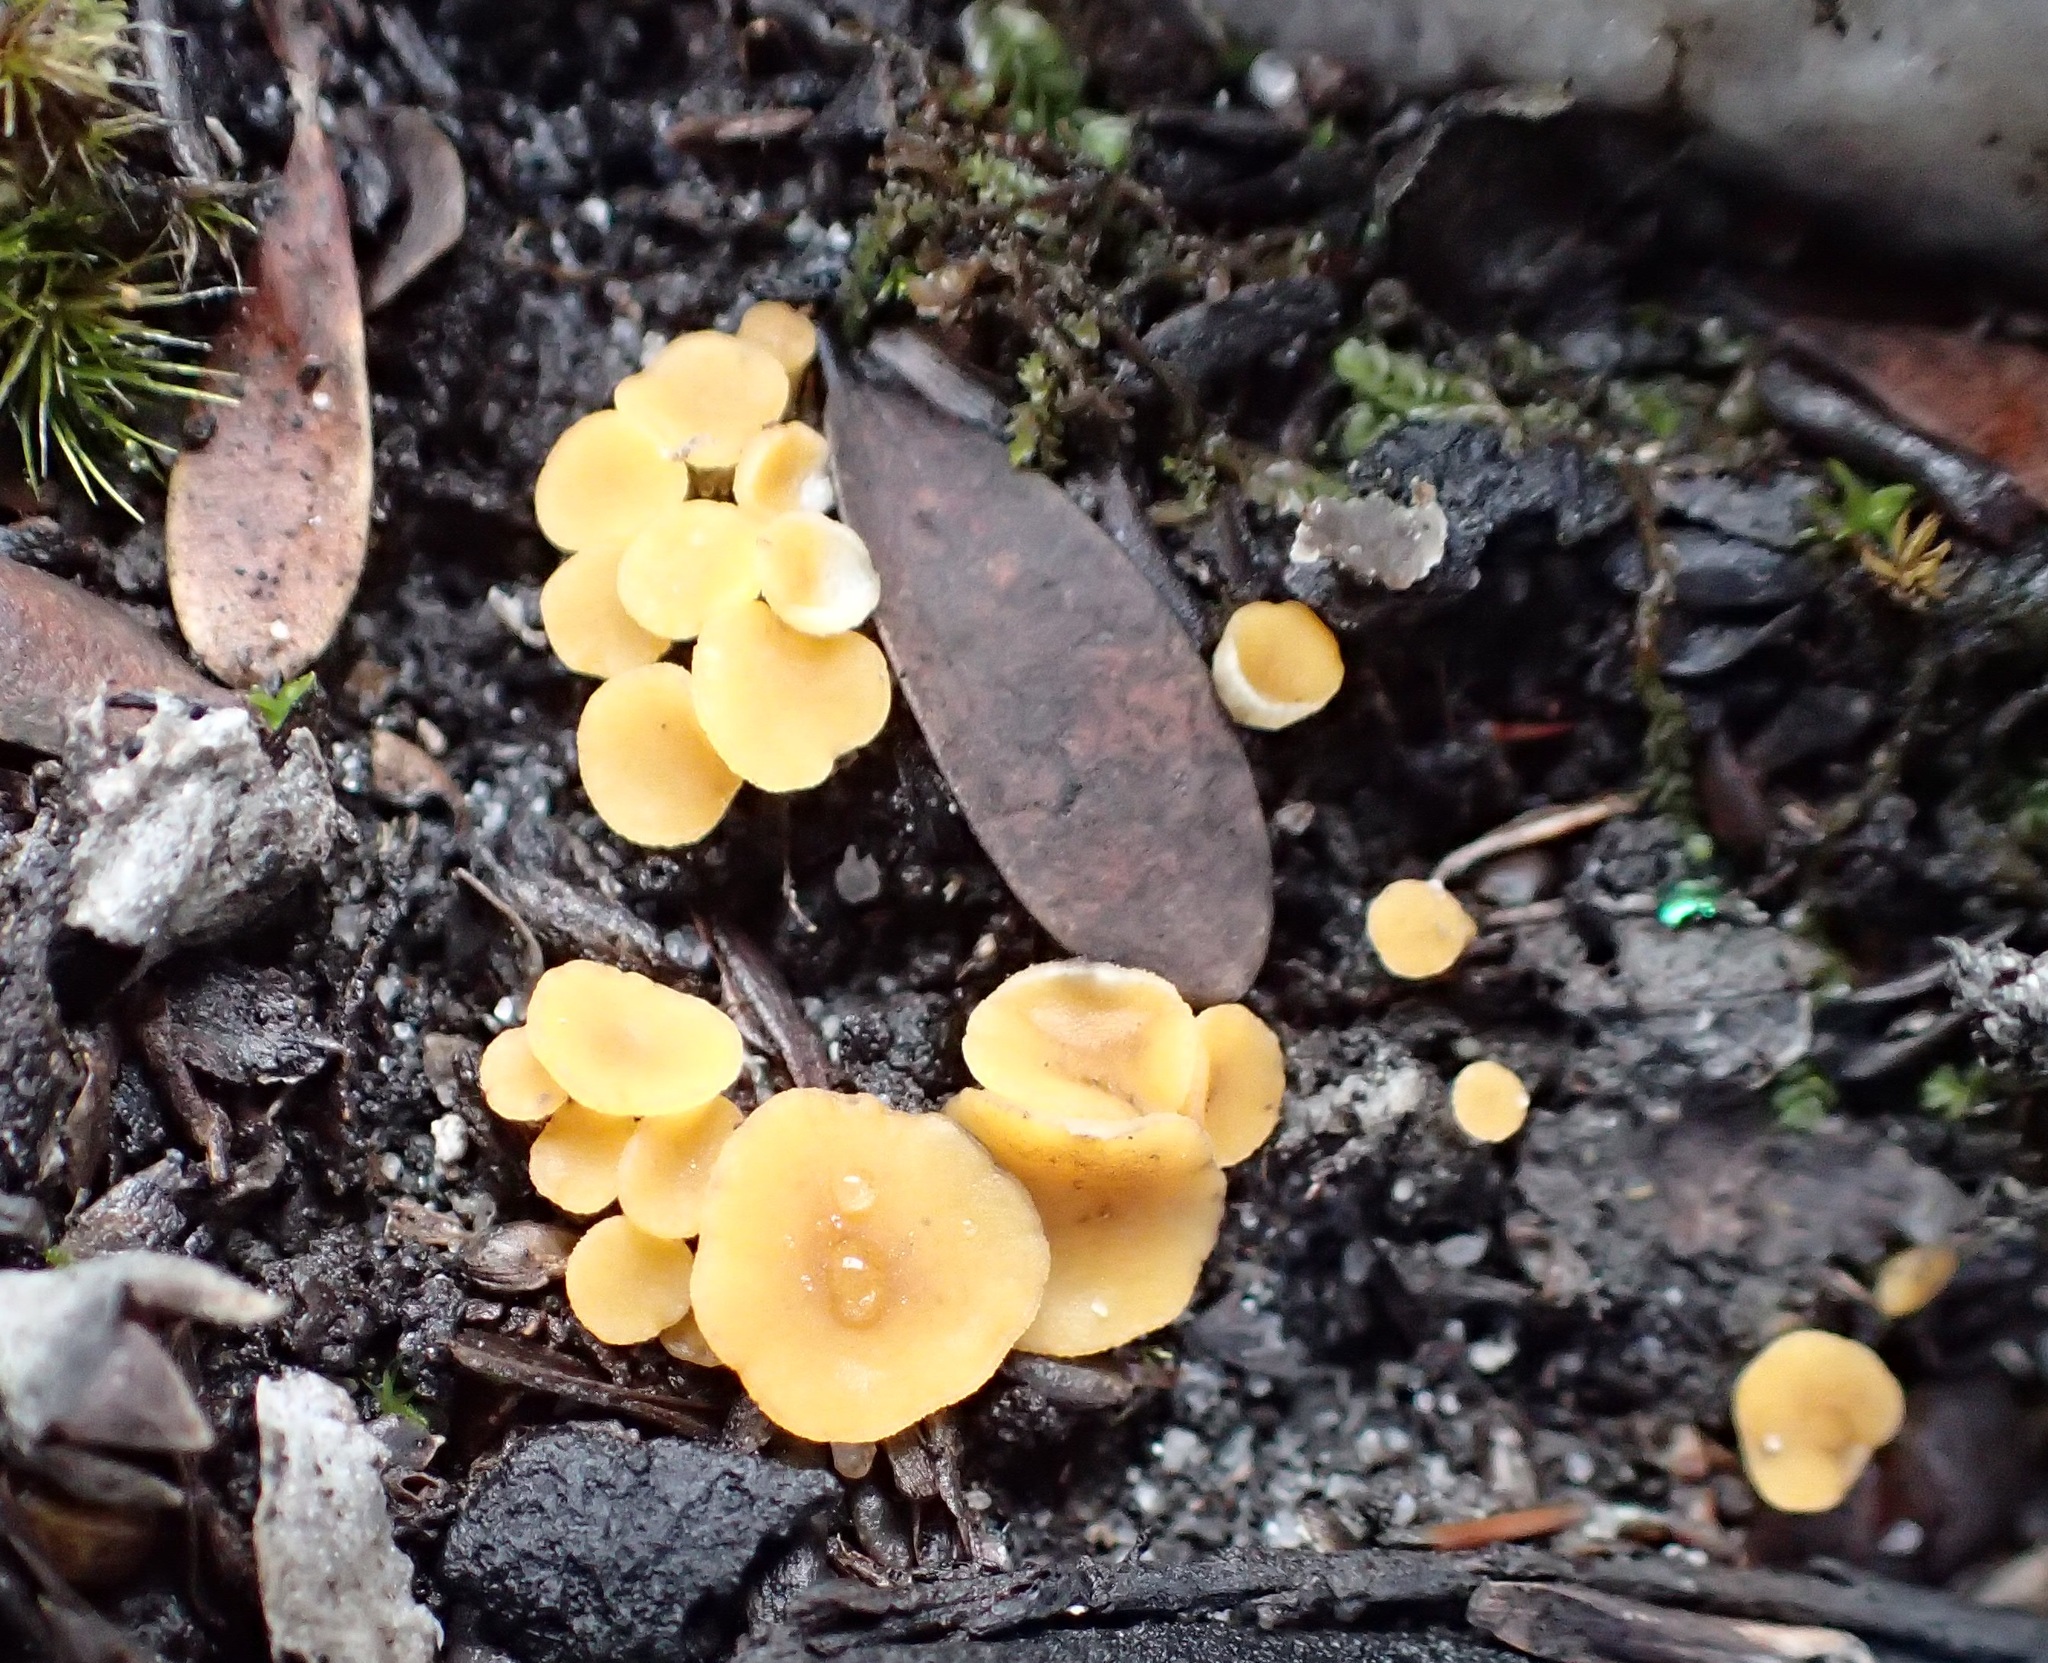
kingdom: Fungi
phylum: Ascomycota
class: Leotiomycetes
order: Helotiales
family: Helotiaceae
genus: Phaeohelotium
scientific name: Phaeohelotium baileyanum
